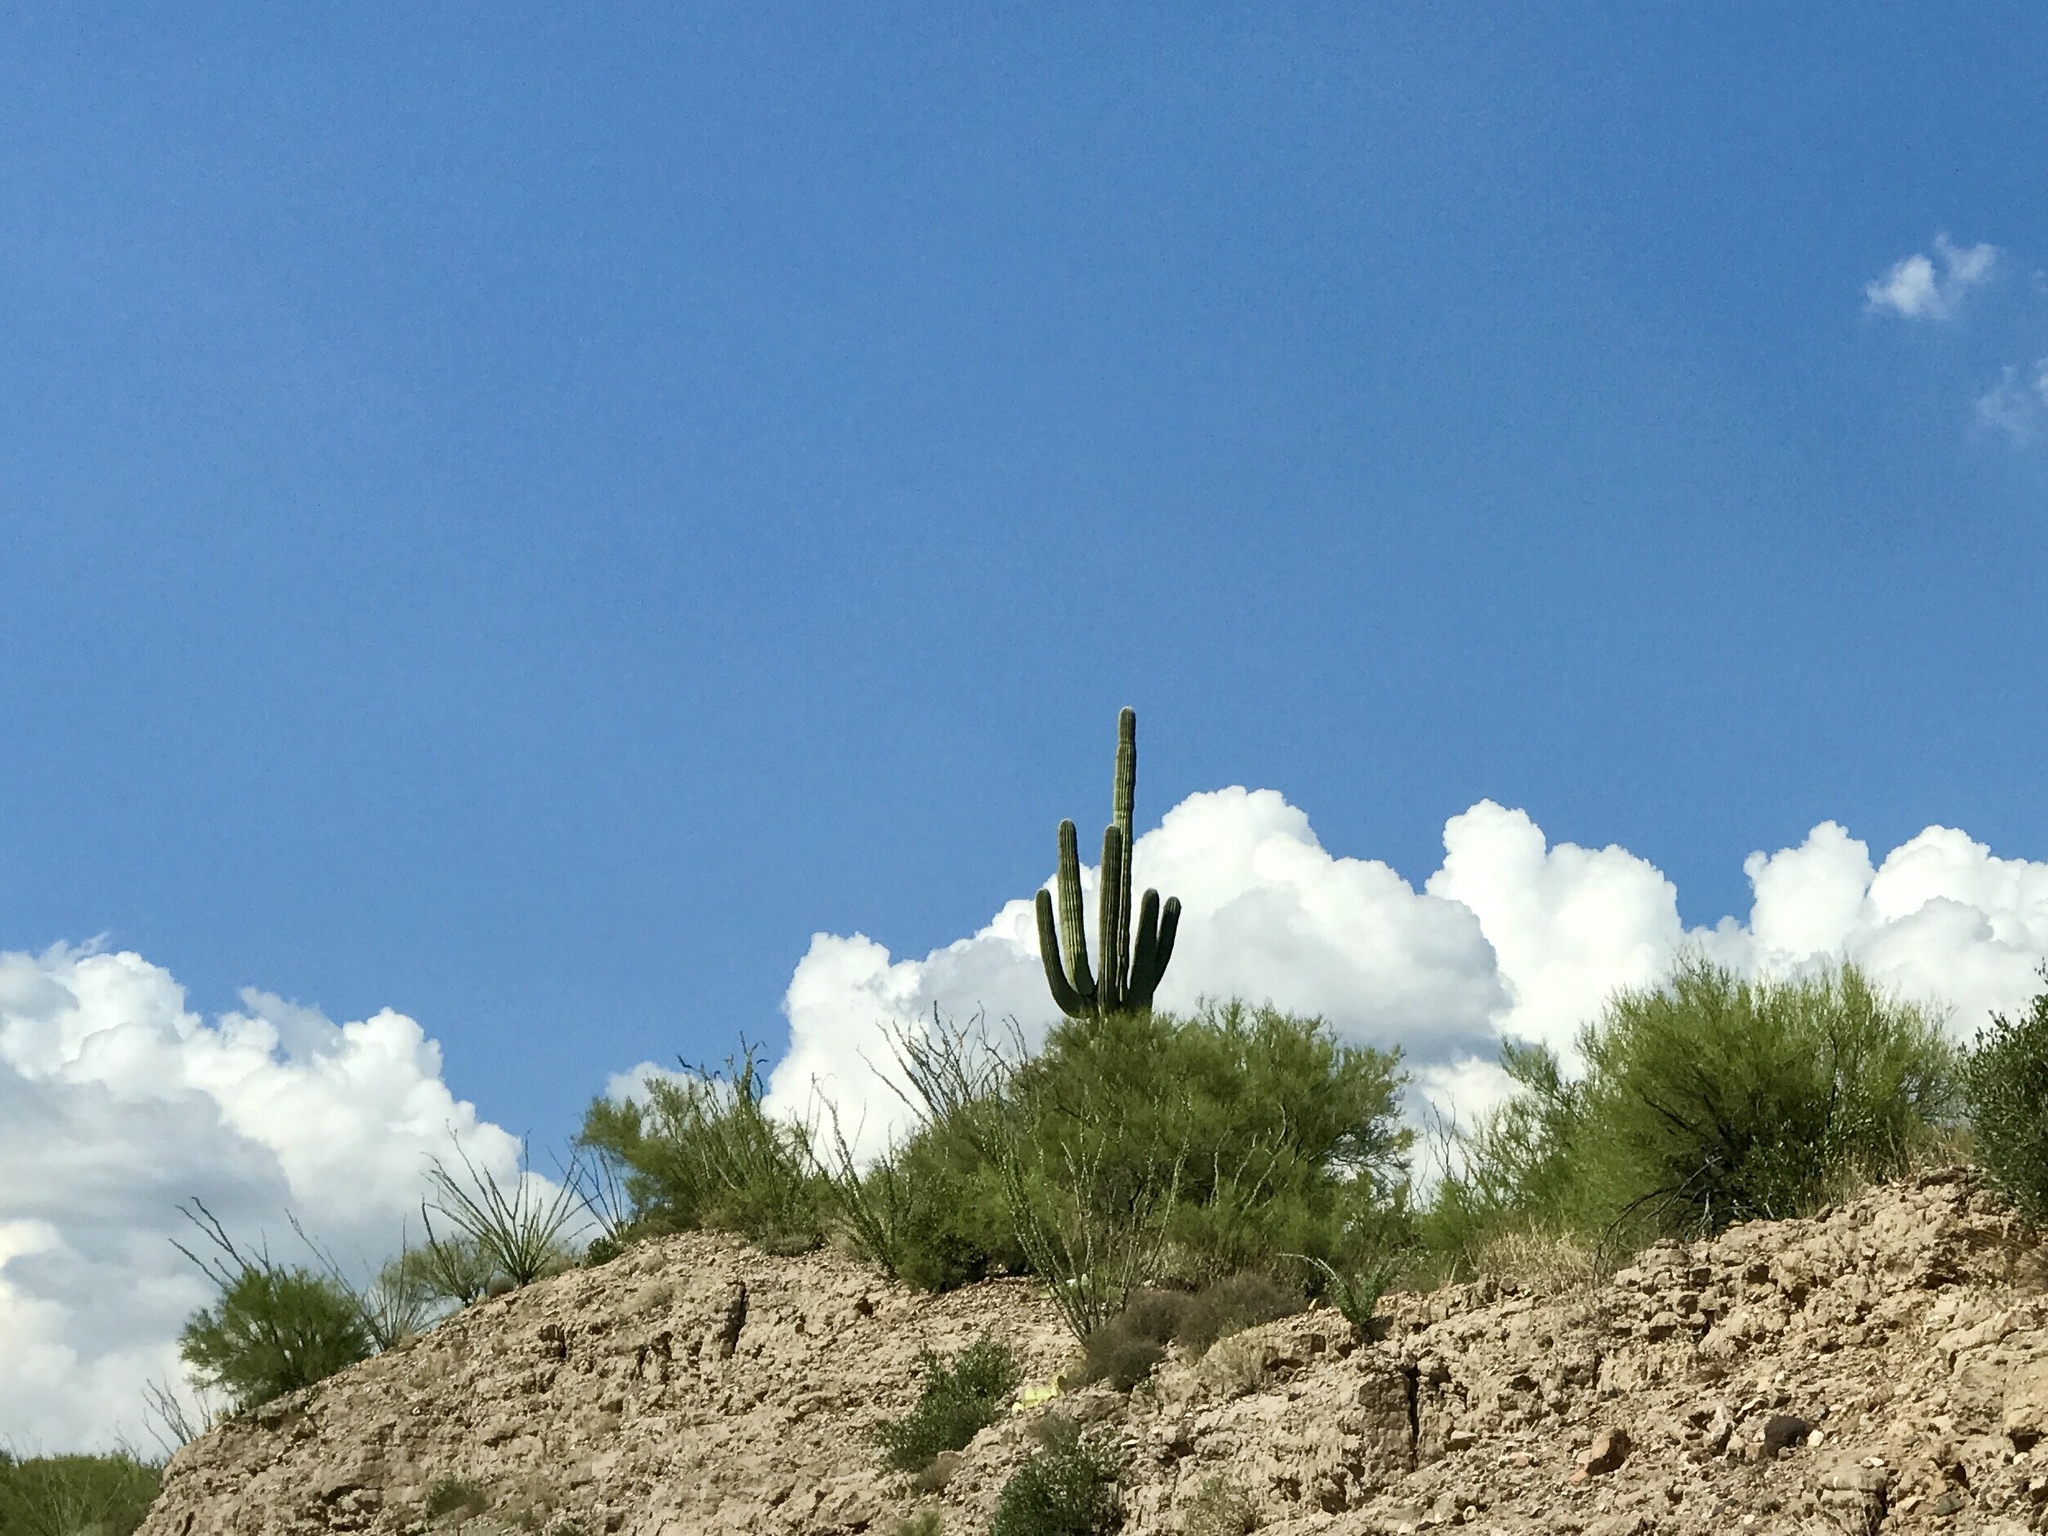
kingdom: Plantae
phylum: Tracheophyta
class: Magnoliopsida
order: Caryophyllales
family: Cactaceae
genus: Carnegiea
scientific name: Carnegiea gigantea
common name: Saguaro
